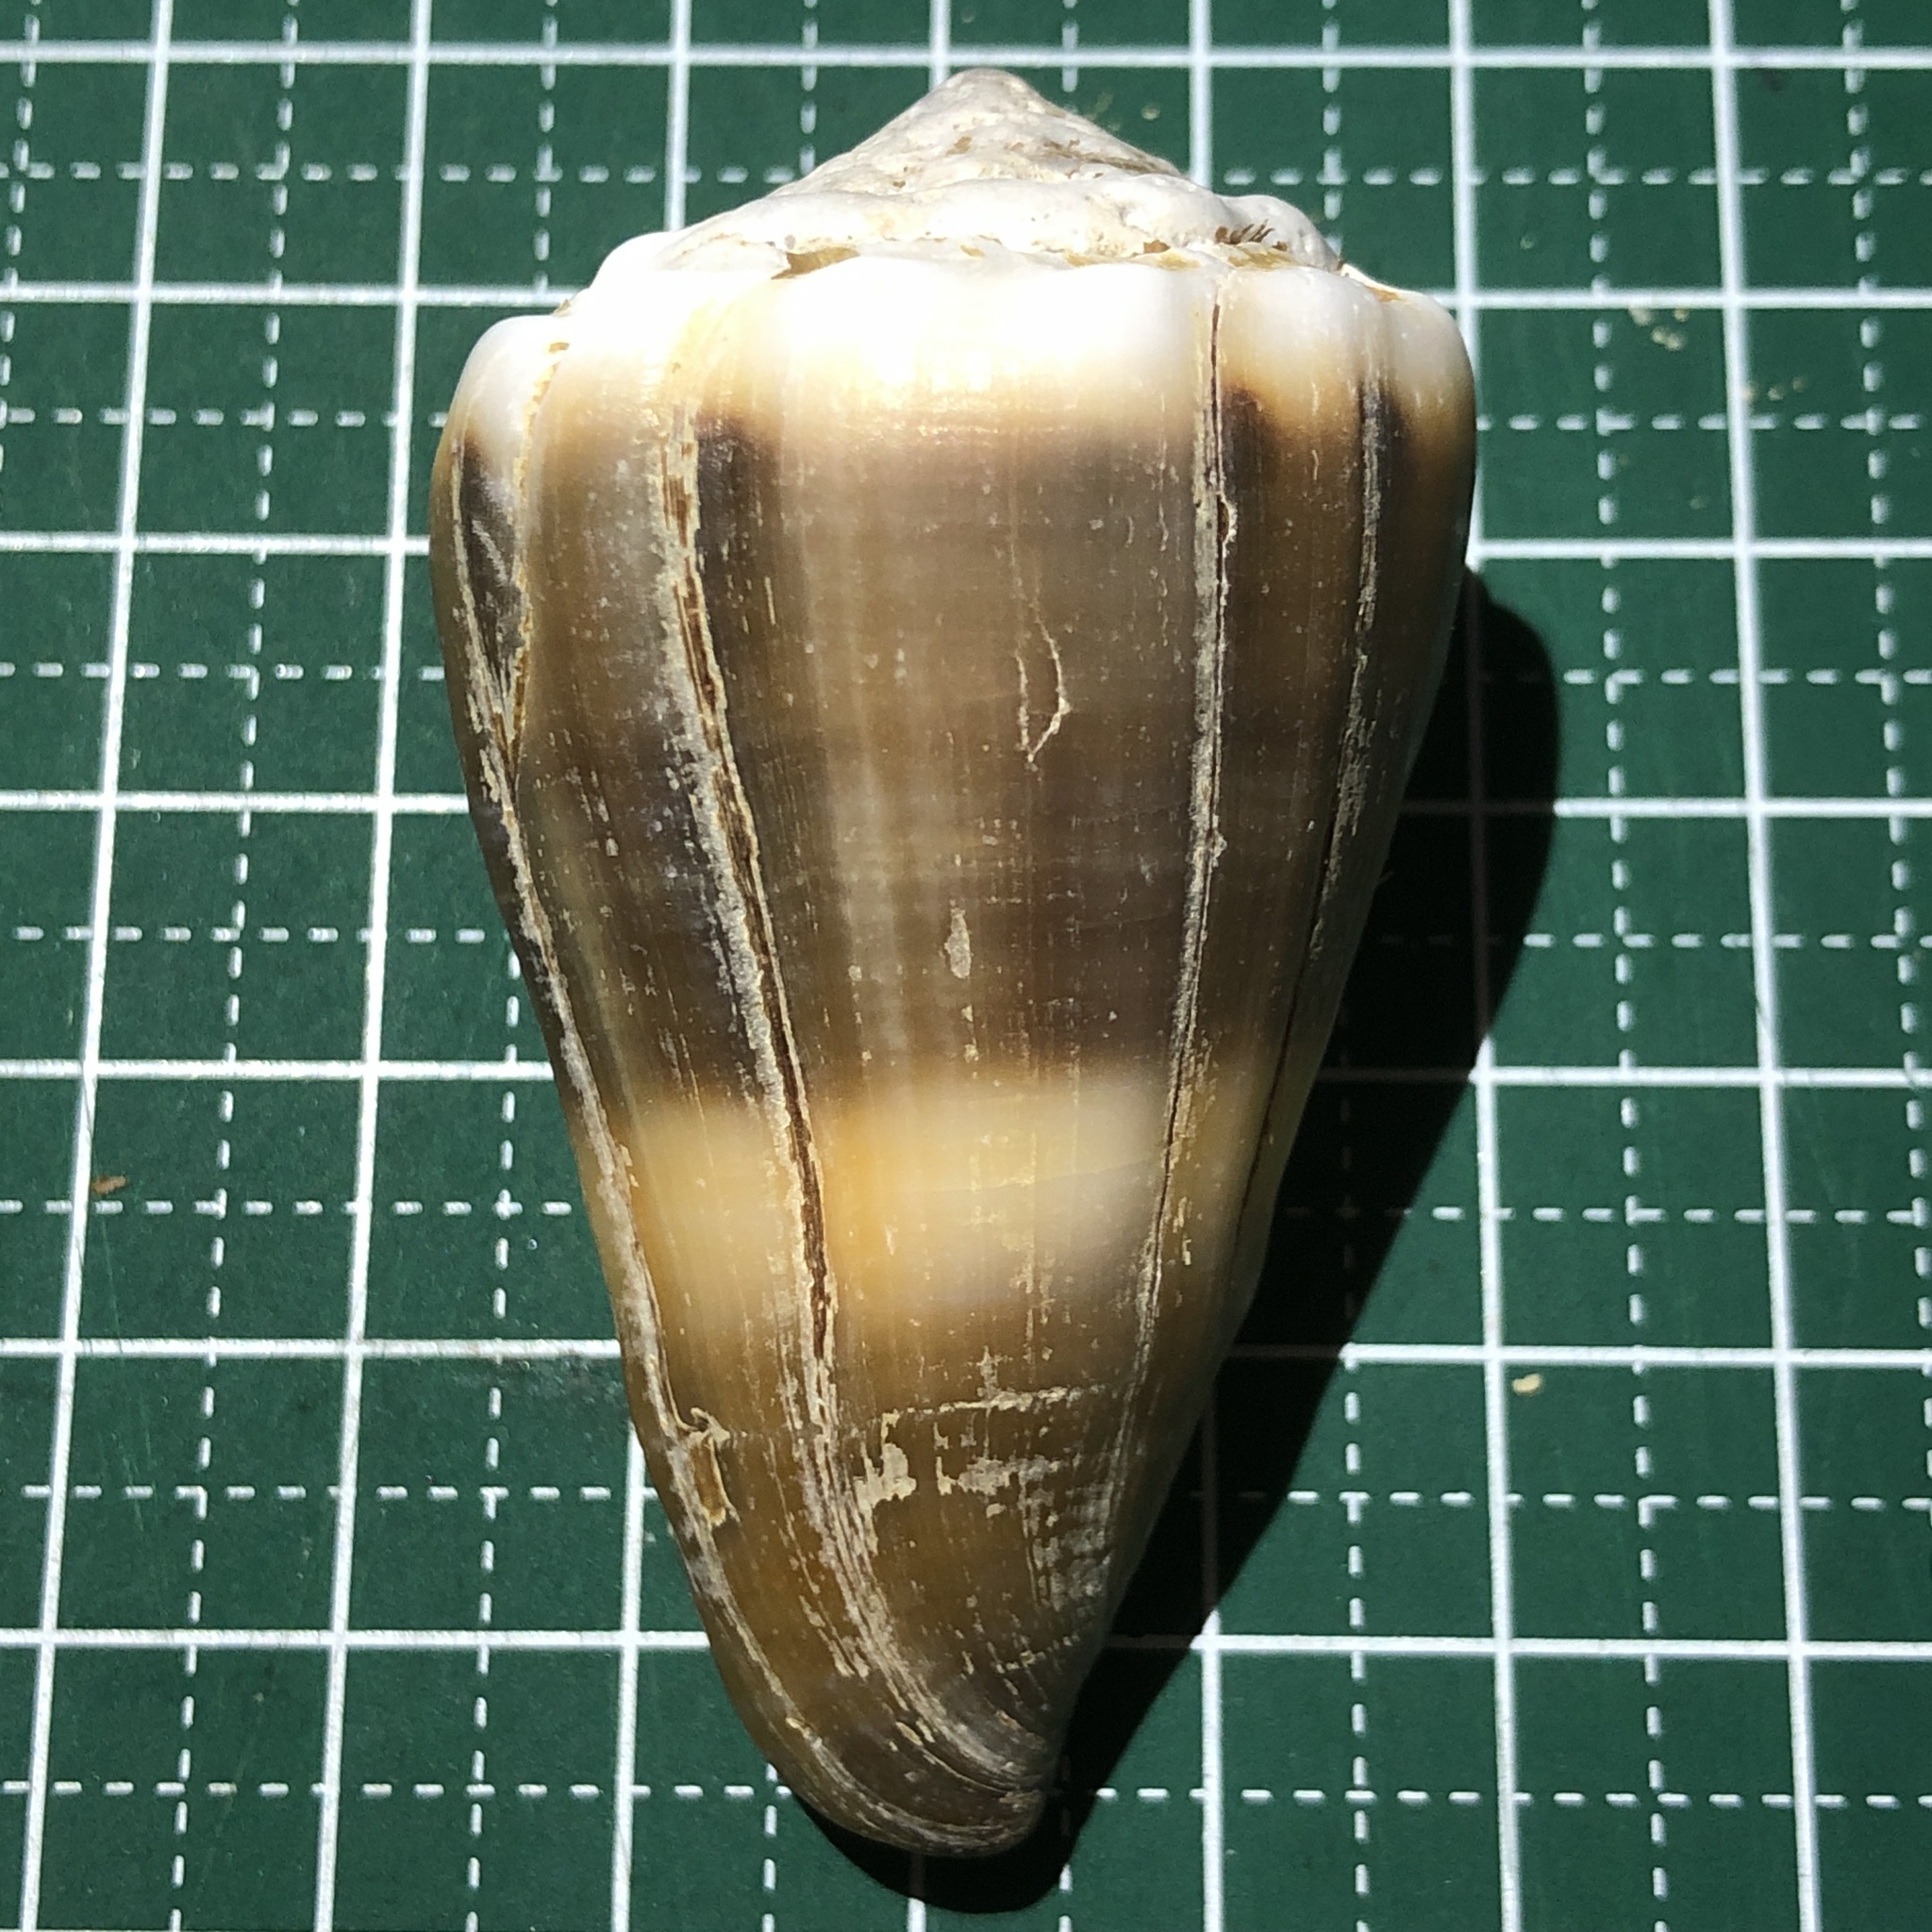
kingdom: Animalia
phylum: Mollusca
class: Gastropoda
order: Neogastropoda
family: Conidae
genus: Conus
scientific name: Conus lividus
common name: Livid cone
